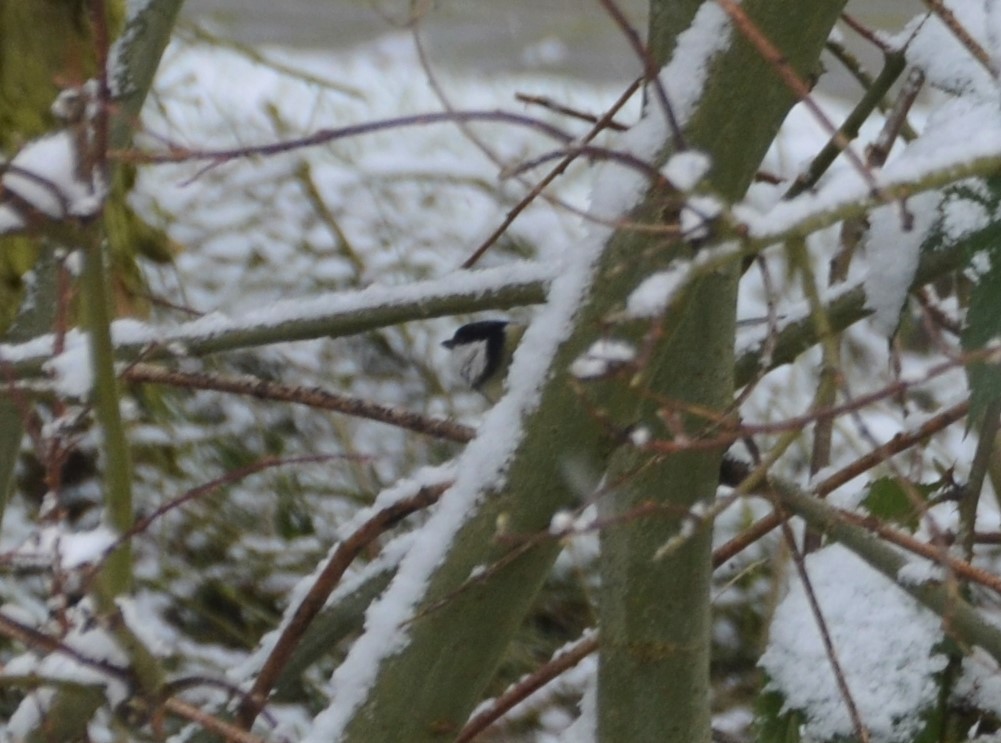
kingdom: Animalia
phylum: Chordata
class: Aves
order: Passeriformes
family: Paridae
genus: Parus
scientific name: Parus major
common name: Great tit
